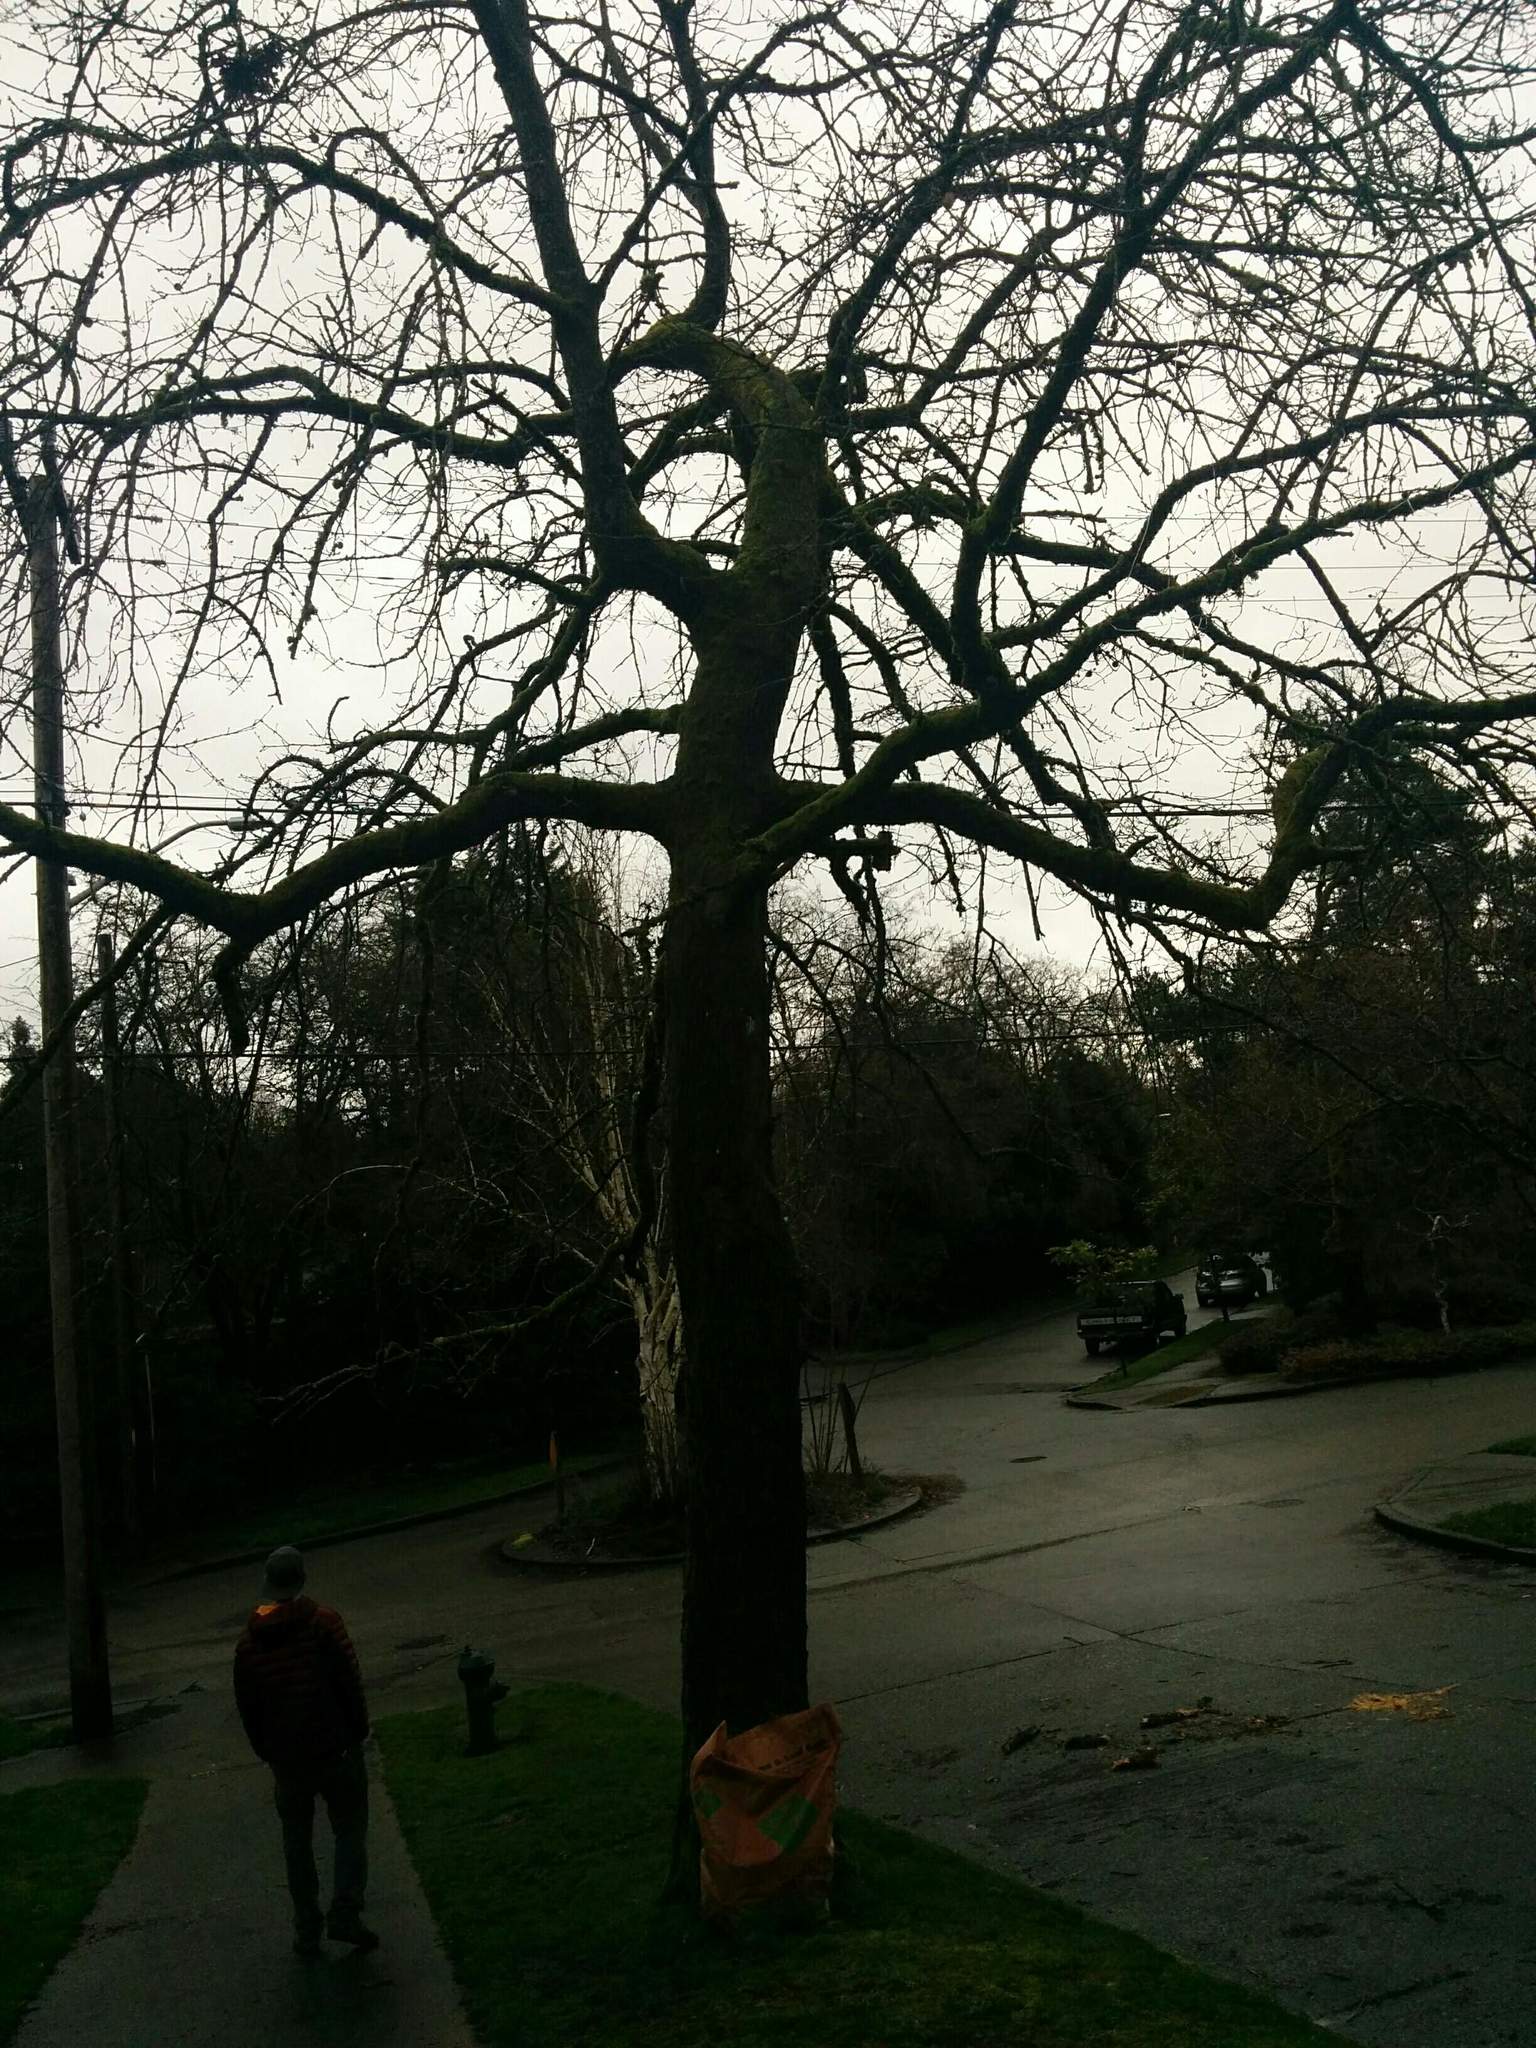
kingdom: Plantae
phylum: Tracheophyta
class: Magnoliopsida
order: Fagales
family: Fagaceae
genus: Quercus
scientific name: Quercus garryana
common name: Garry oak
